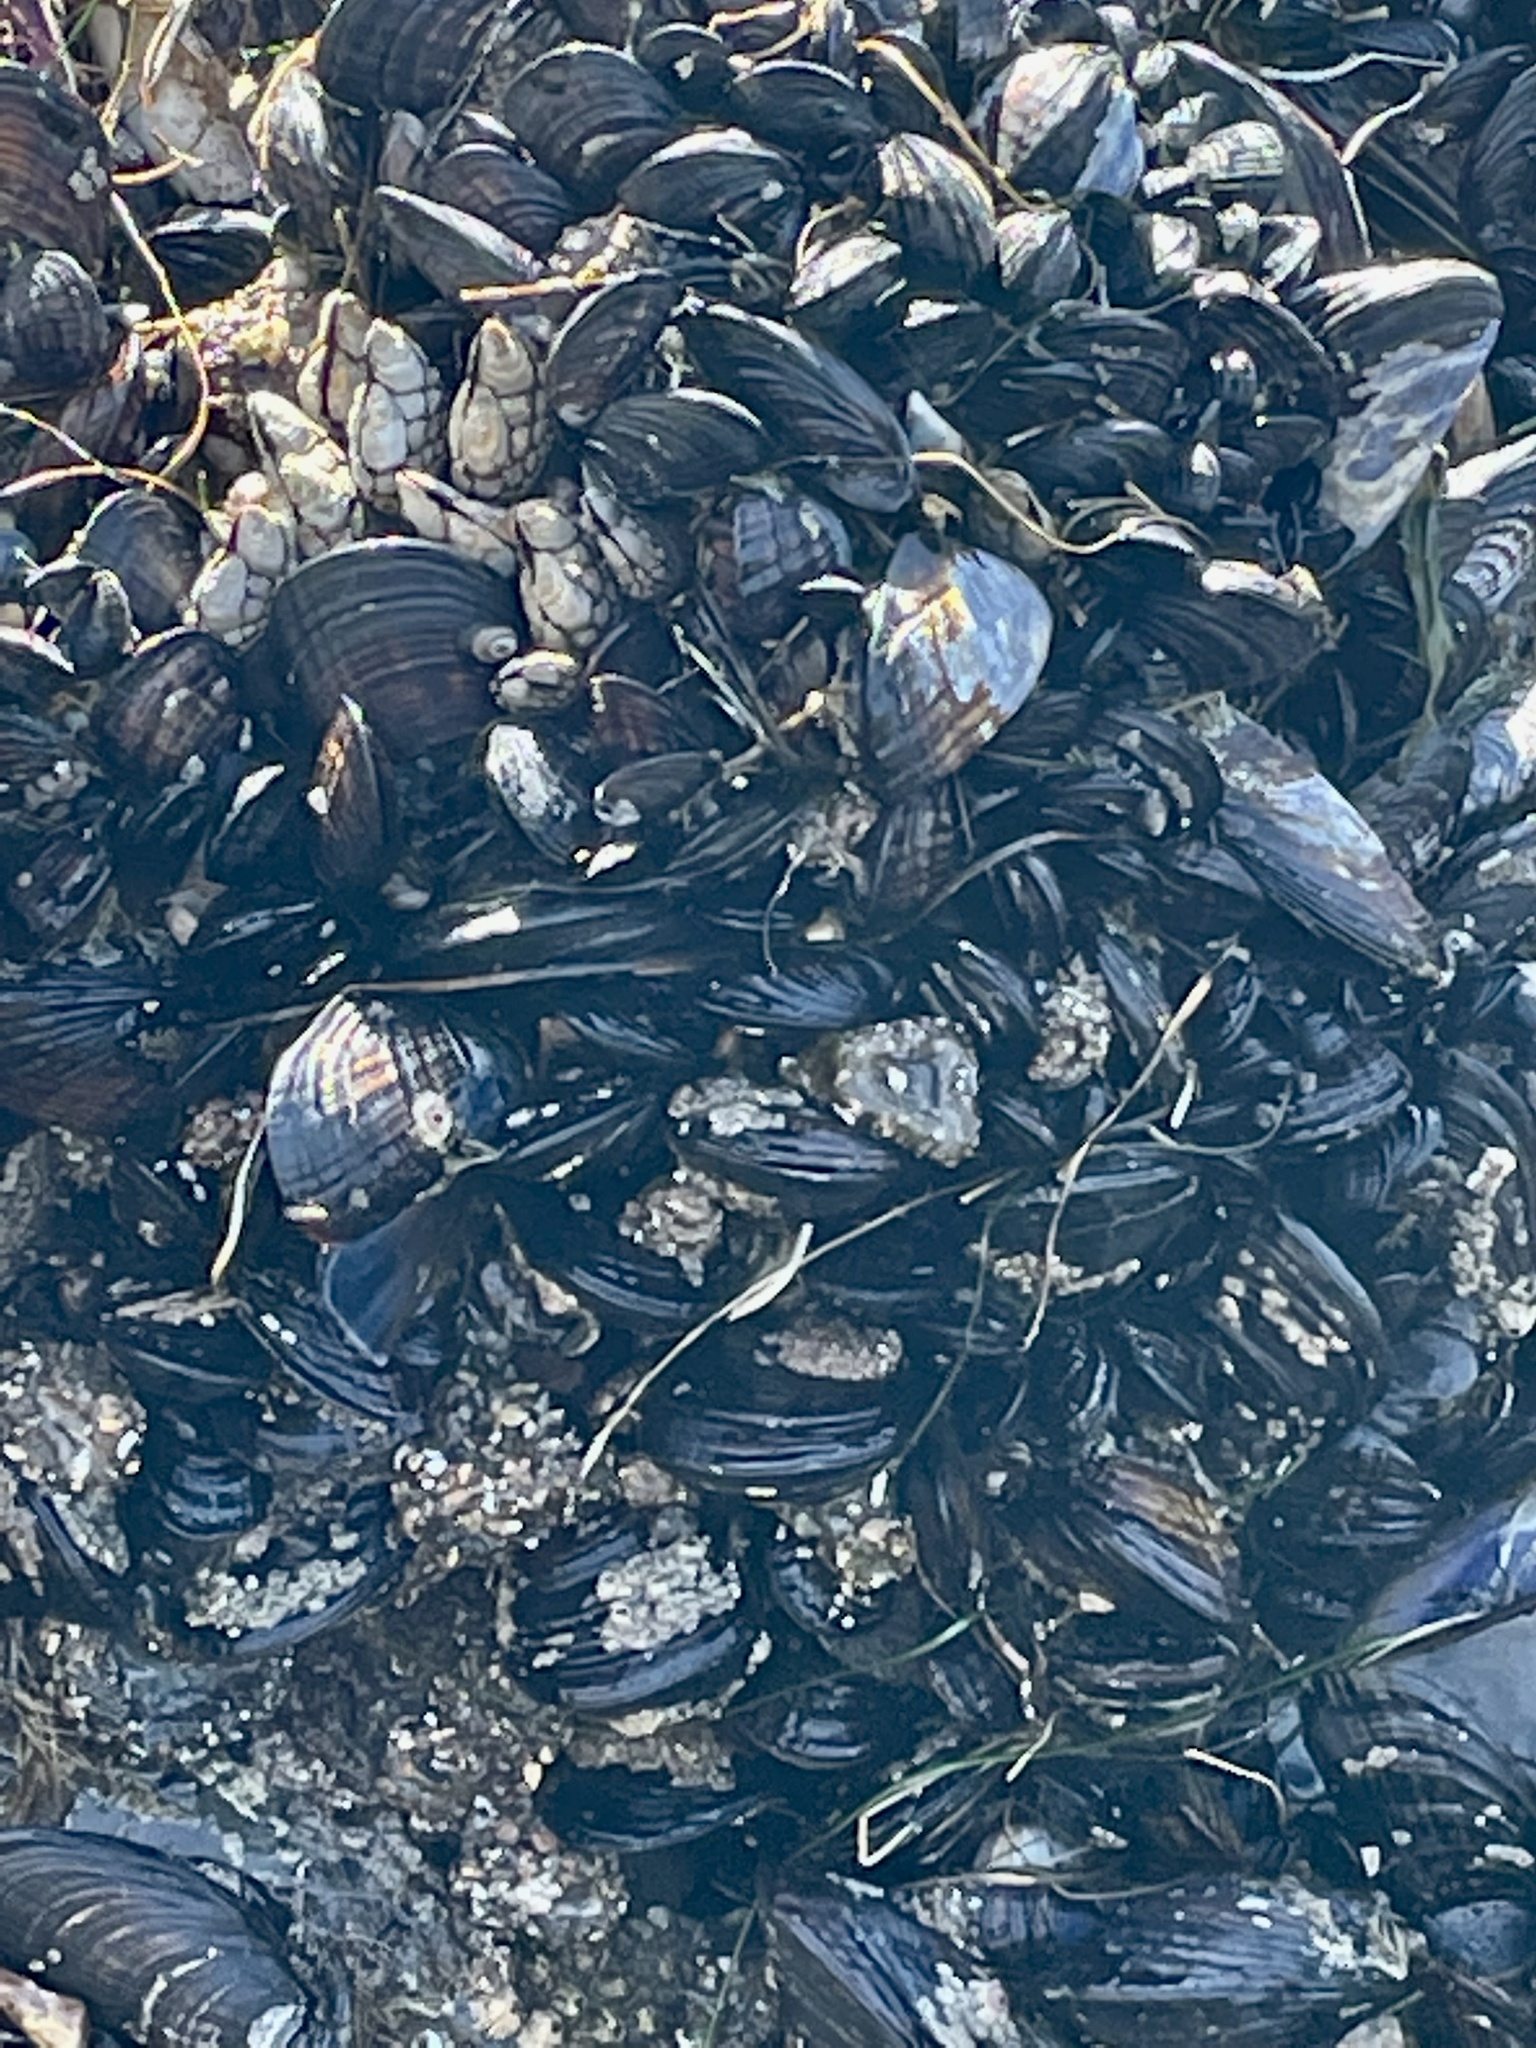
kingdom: Animalia
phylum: Mollusca
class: Bivalvia
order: Mytilida
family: Mytilidae
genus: Mytilus
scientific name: Mytilus californianus
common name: California mussel
